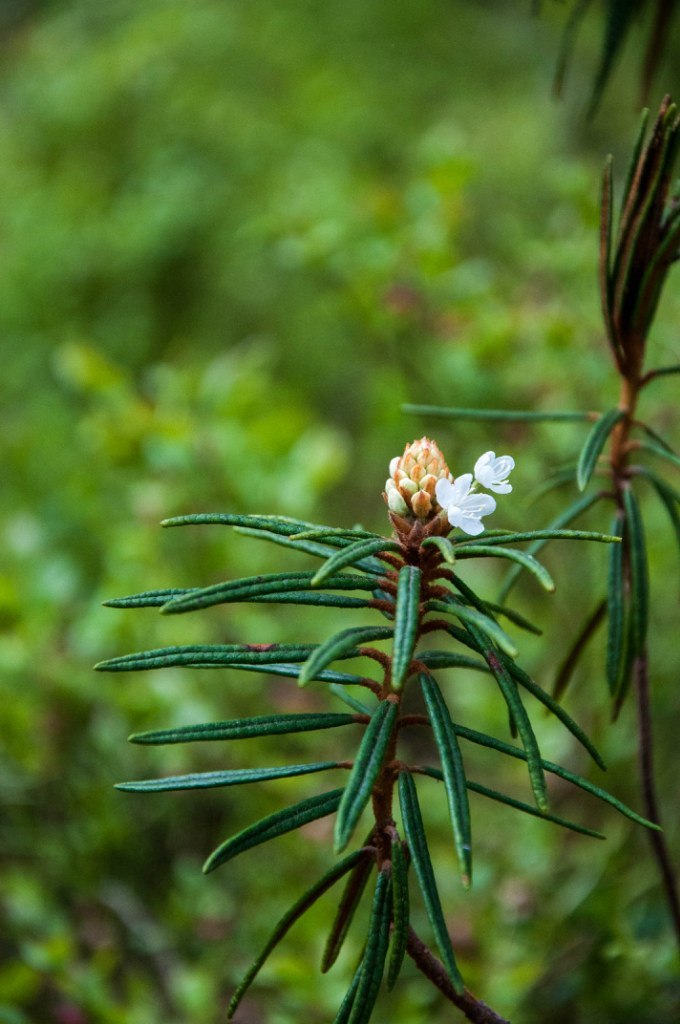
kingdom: Plantae
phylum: Tracheophyta
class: Magnoliopsida
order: Ericales
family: Ericaceae
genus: Rhododendron
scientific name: Rhododendron tomentosum
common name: Marsh labrador tea
